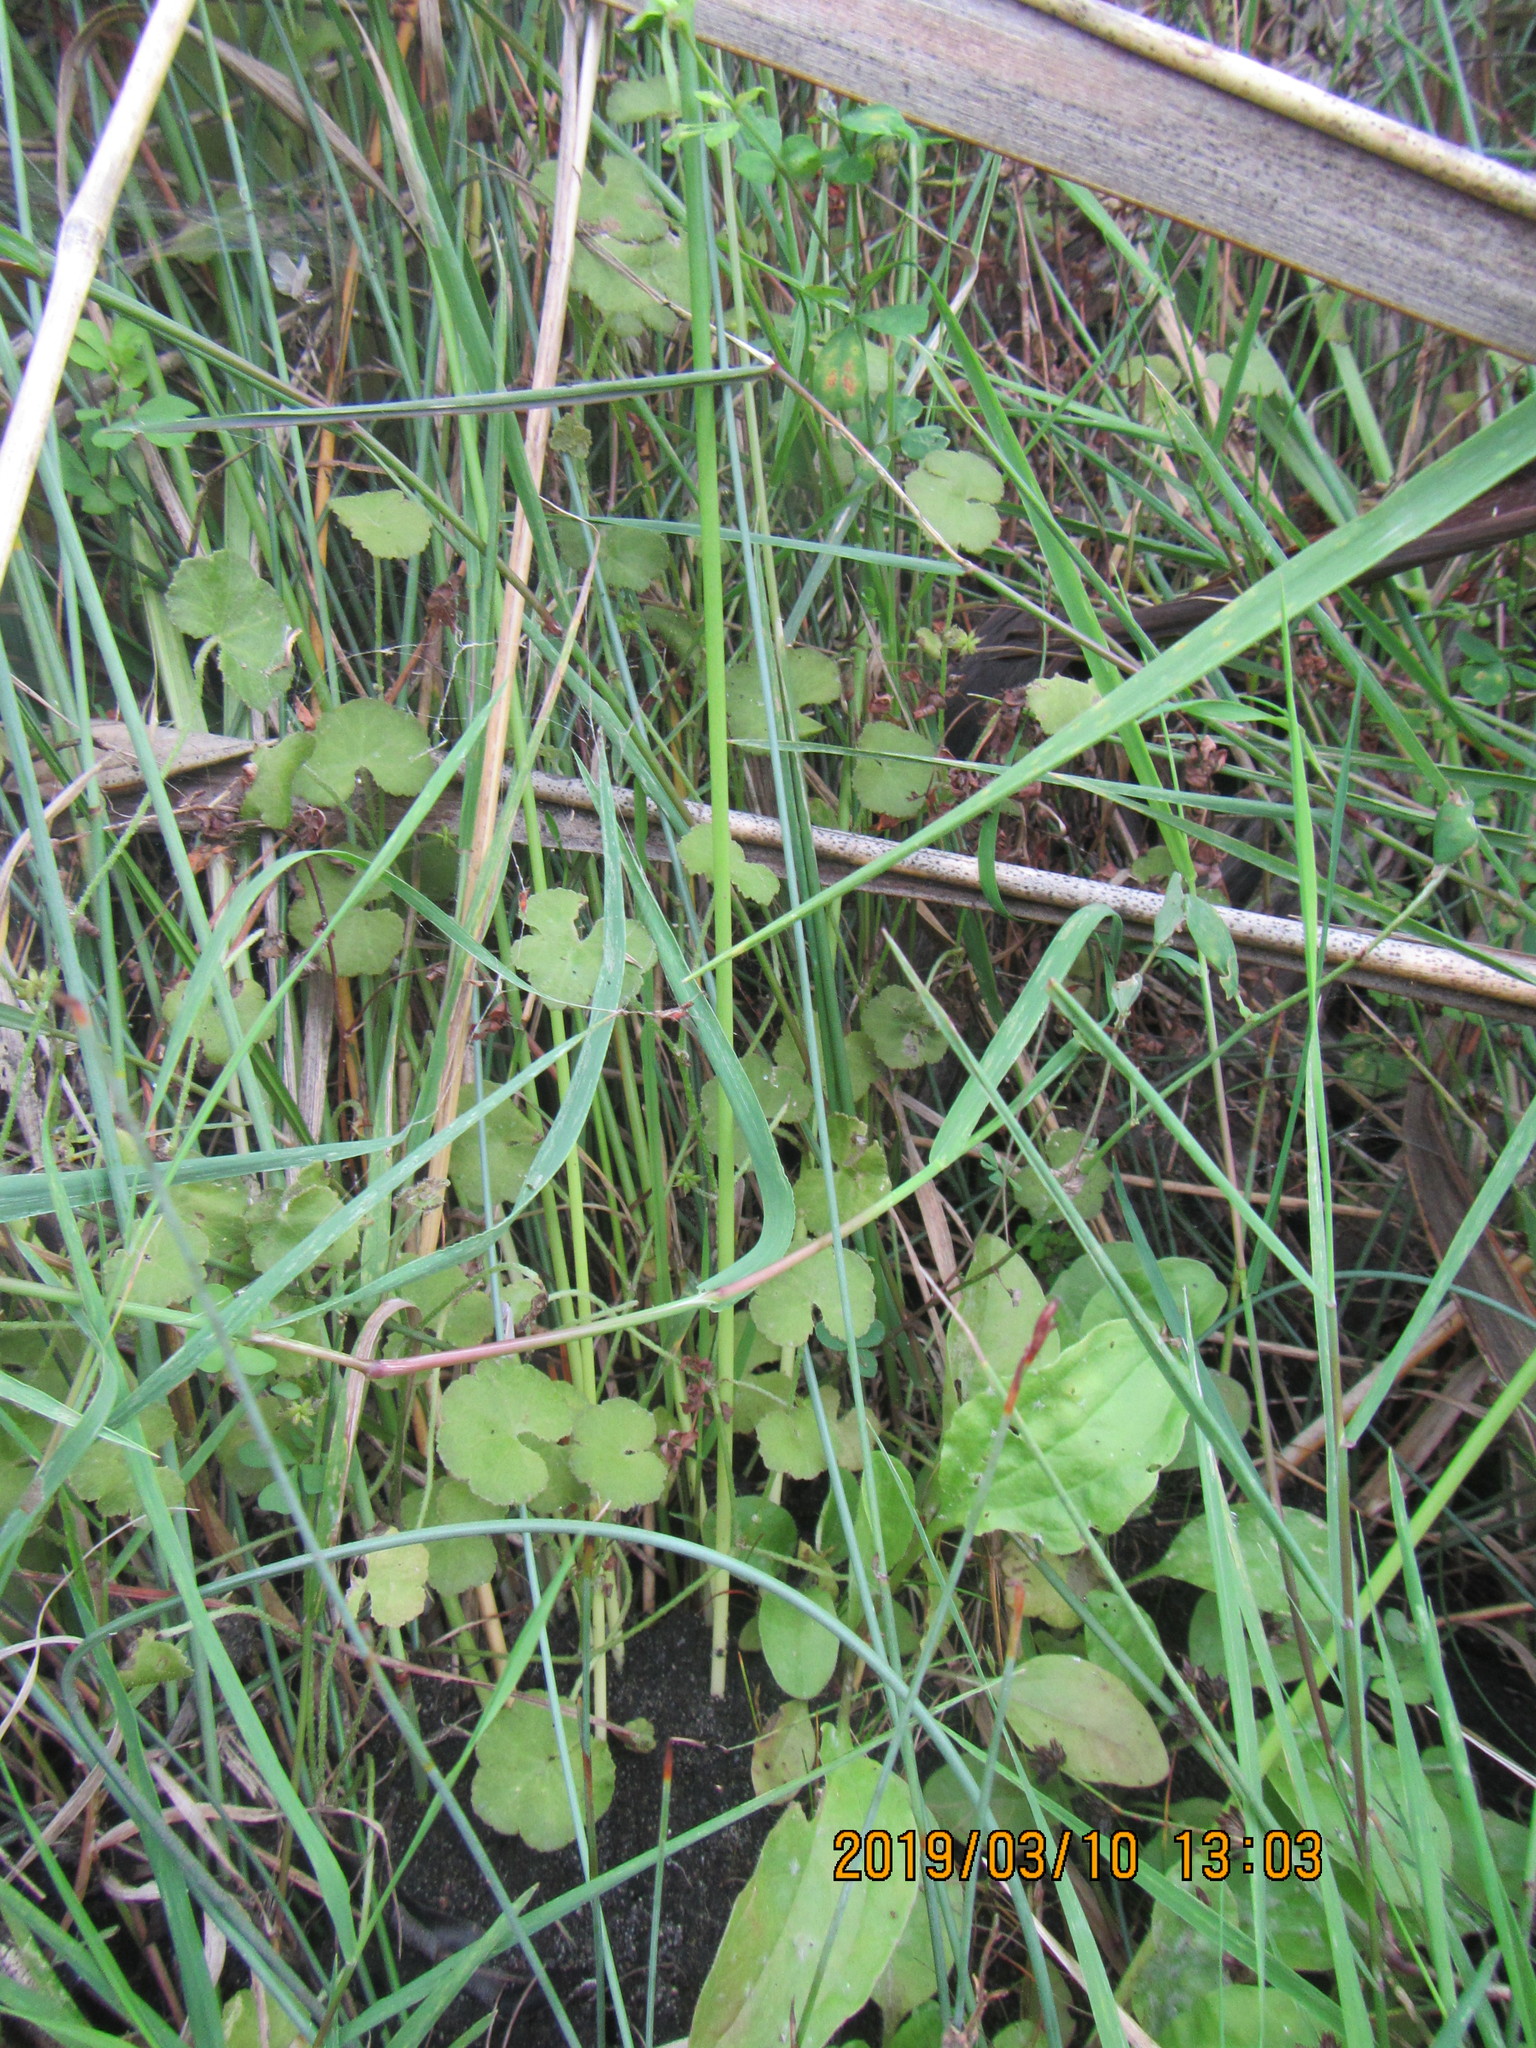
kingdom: Plantae
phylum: Tracheophyta
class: Magnoliopsida
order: Apiales
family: Araliaceae
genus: Hydrocotyle
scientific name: Hydrocotyle novae-zeelandiae
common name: New zealand pennywort
